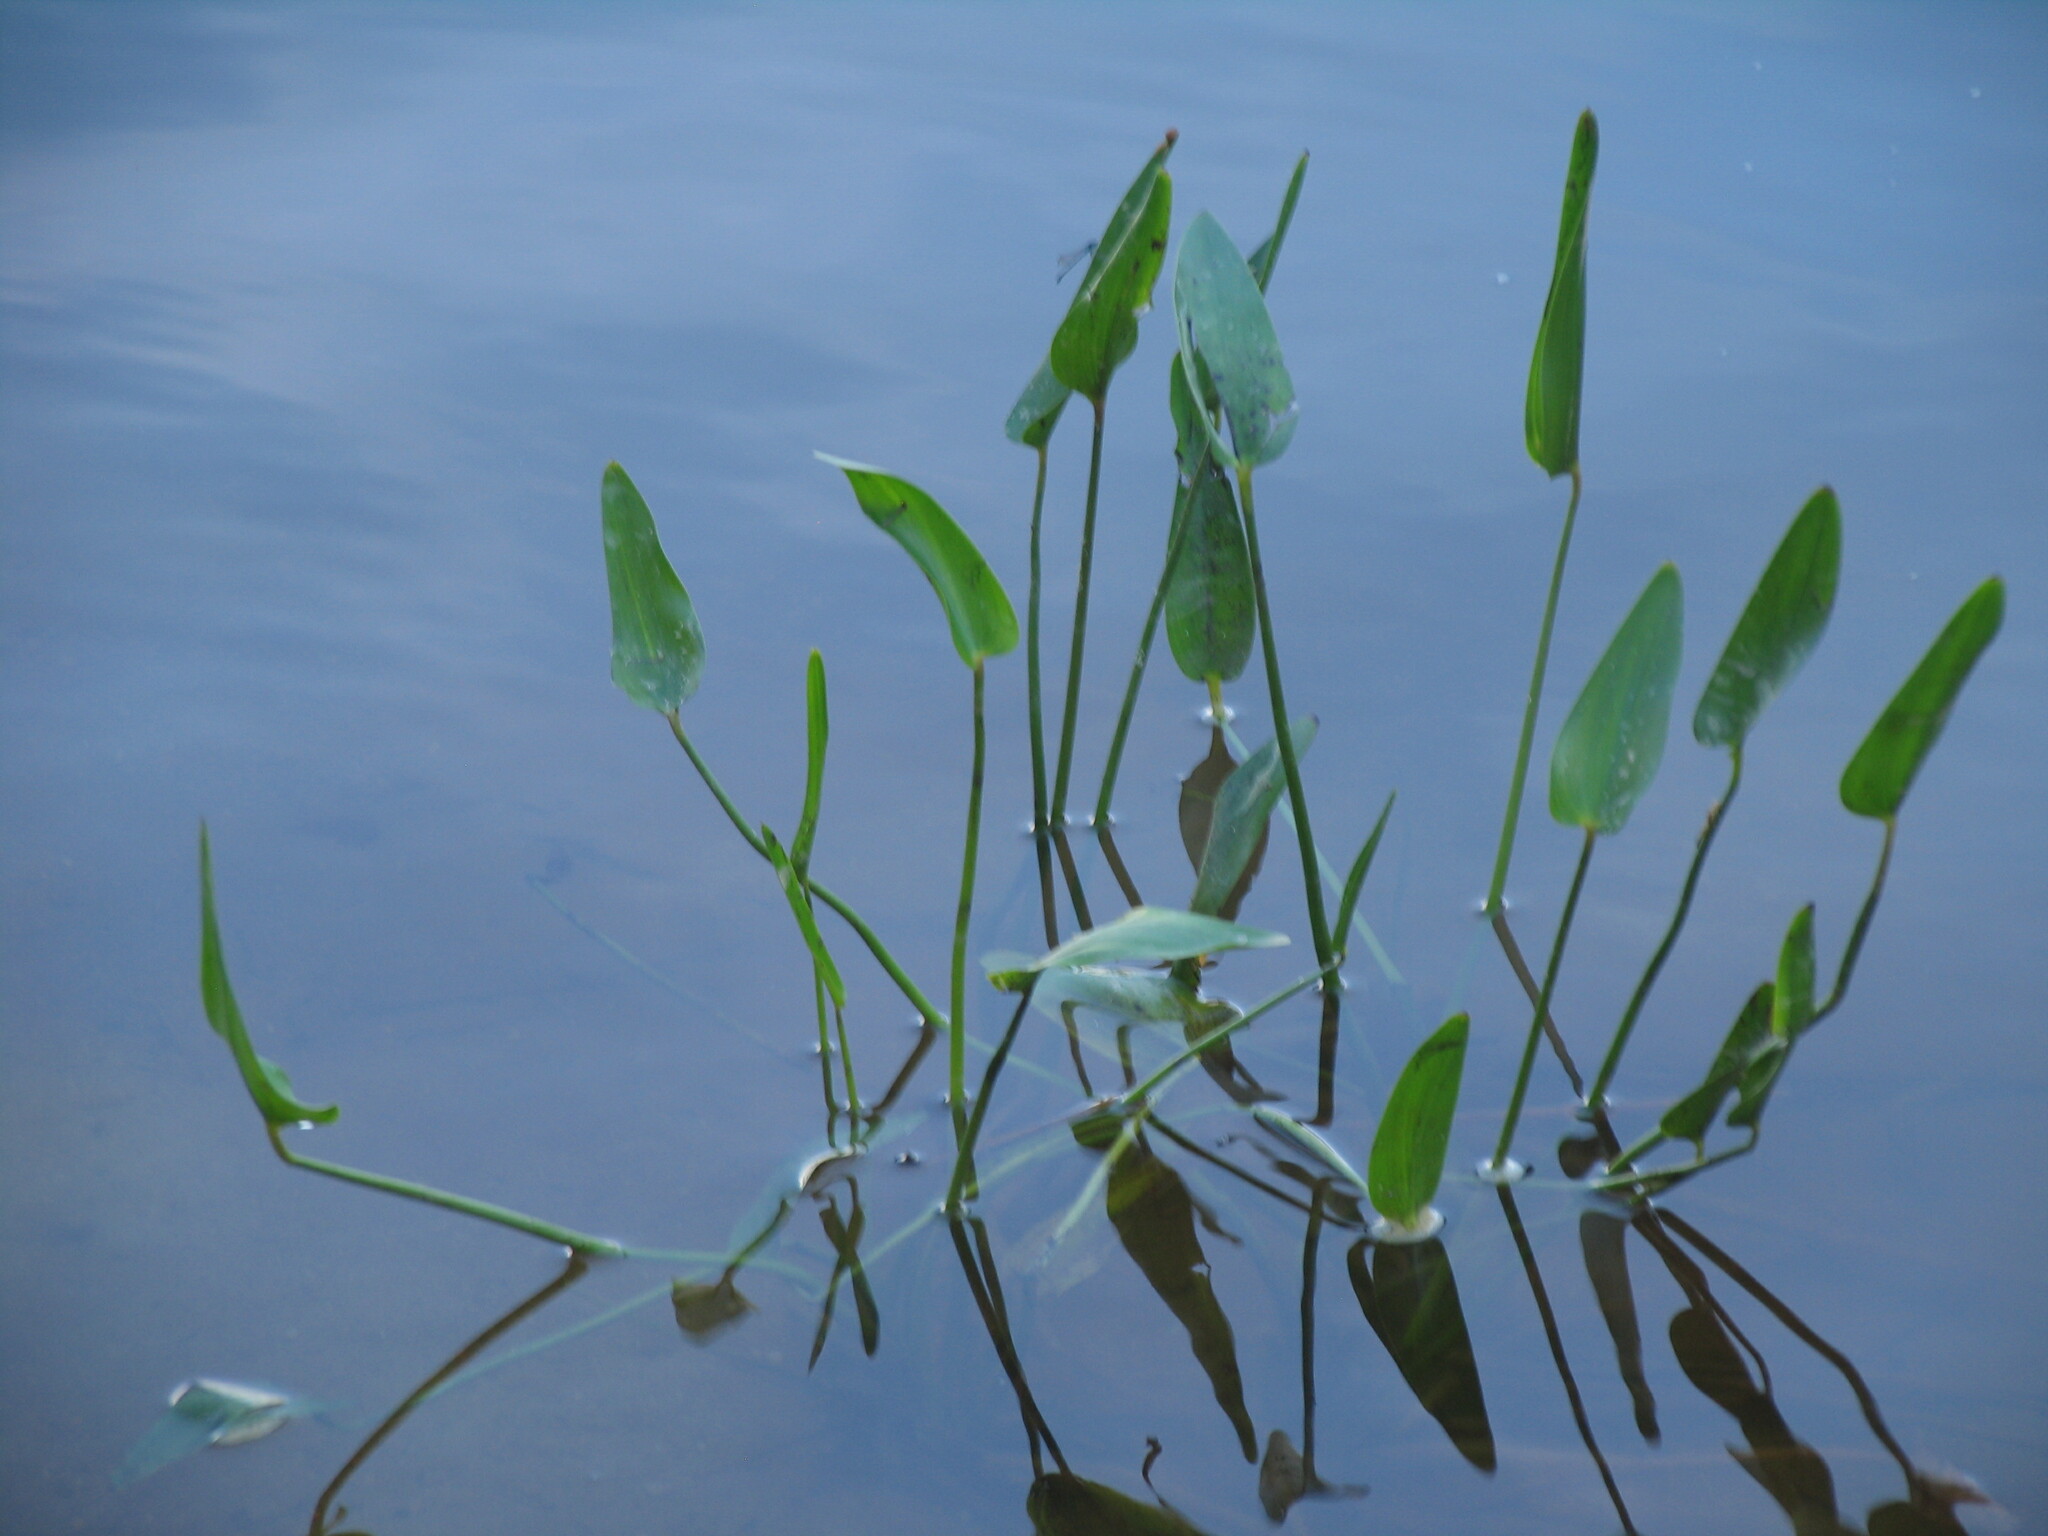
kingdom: Plantae
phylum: Tracheophyta
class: Liliopsida
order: Commelinales
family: Pontederiaceae
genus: Pontederia
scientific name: Pontederia cordata
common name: Pickerelweed
